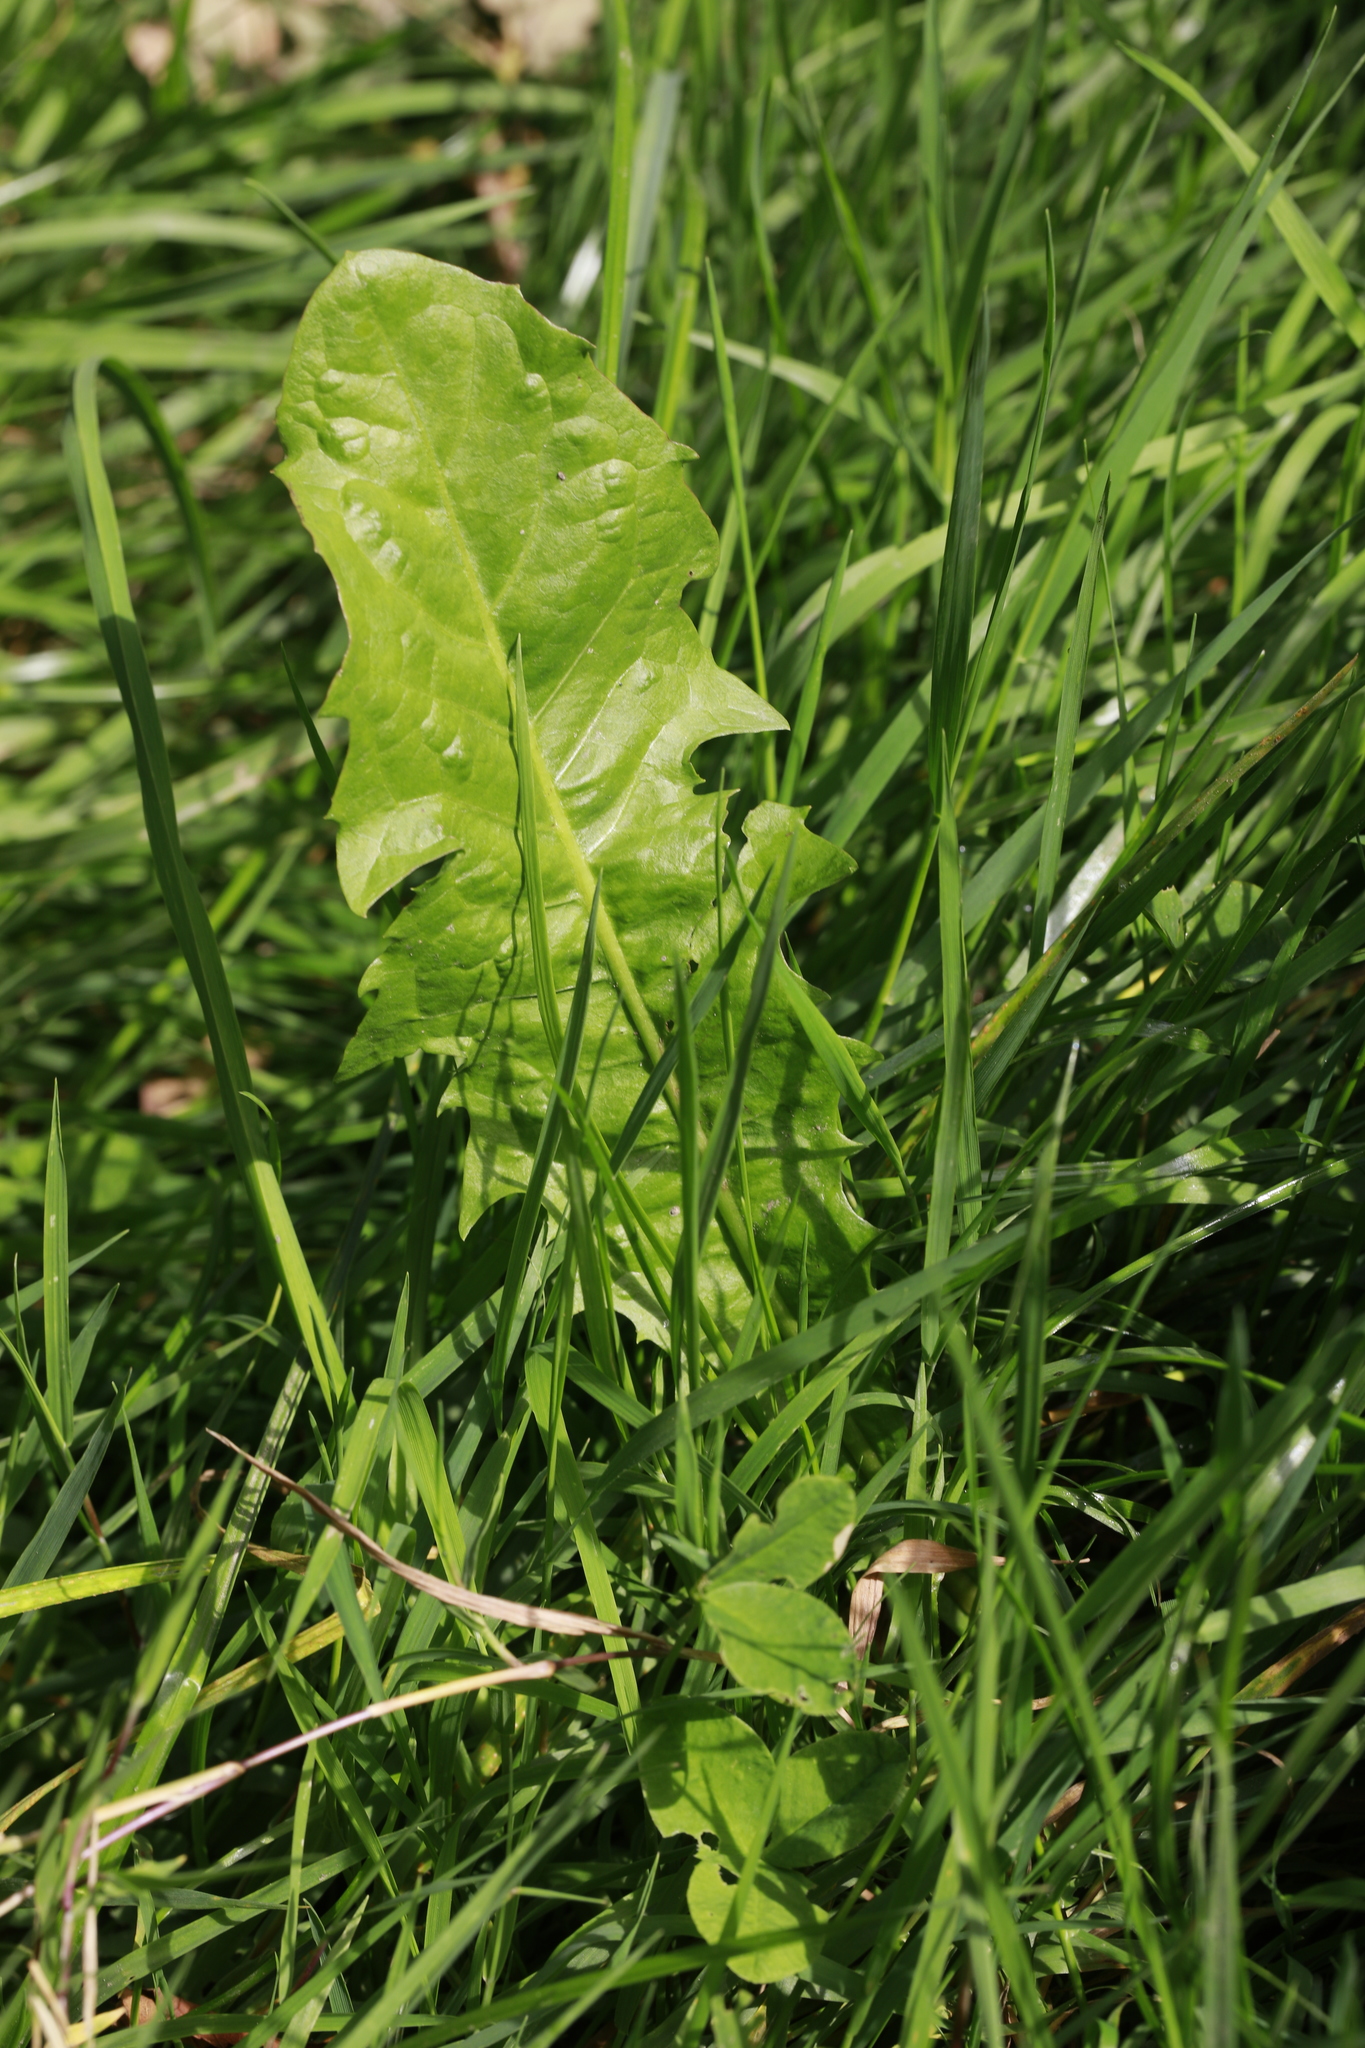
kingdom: Plantae
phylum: Tracheophyta
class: Magnoliopsida
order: Asterales
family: Asteraceae
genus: Taraxacum
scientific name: Taraxacum officinale
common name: Common dandelion
